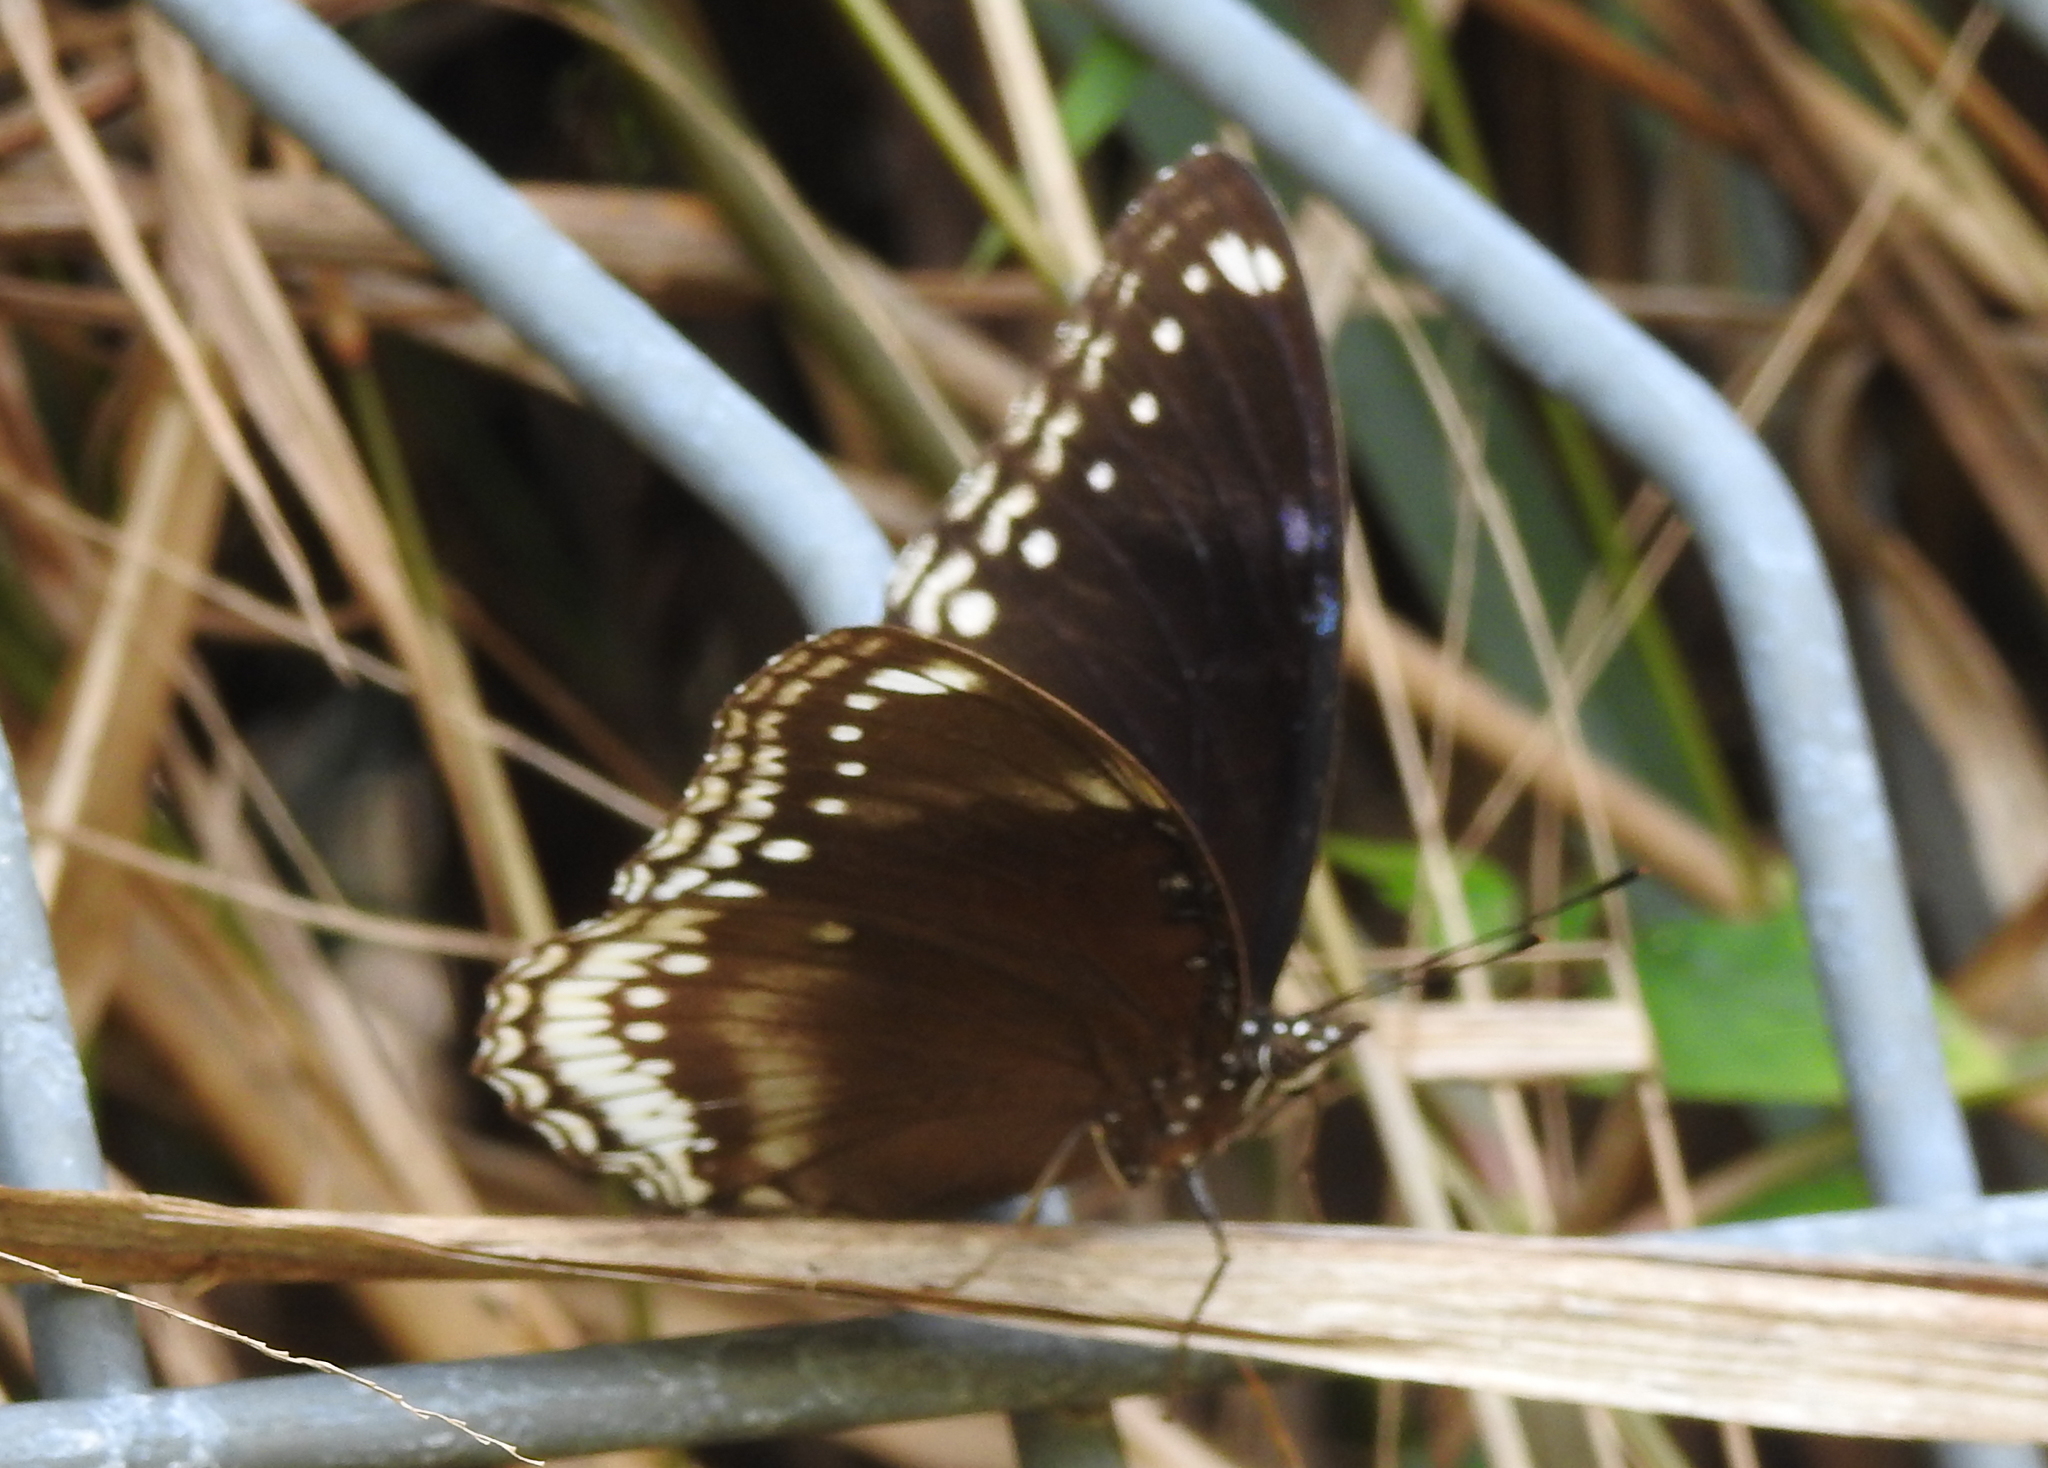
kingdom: Animalia
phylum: Arthropoda
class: Insecta
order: Lepidoptera
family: Nymphalidae
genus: Hypolimnas
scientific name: Hypolimnas bolina
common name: Great eggfly
